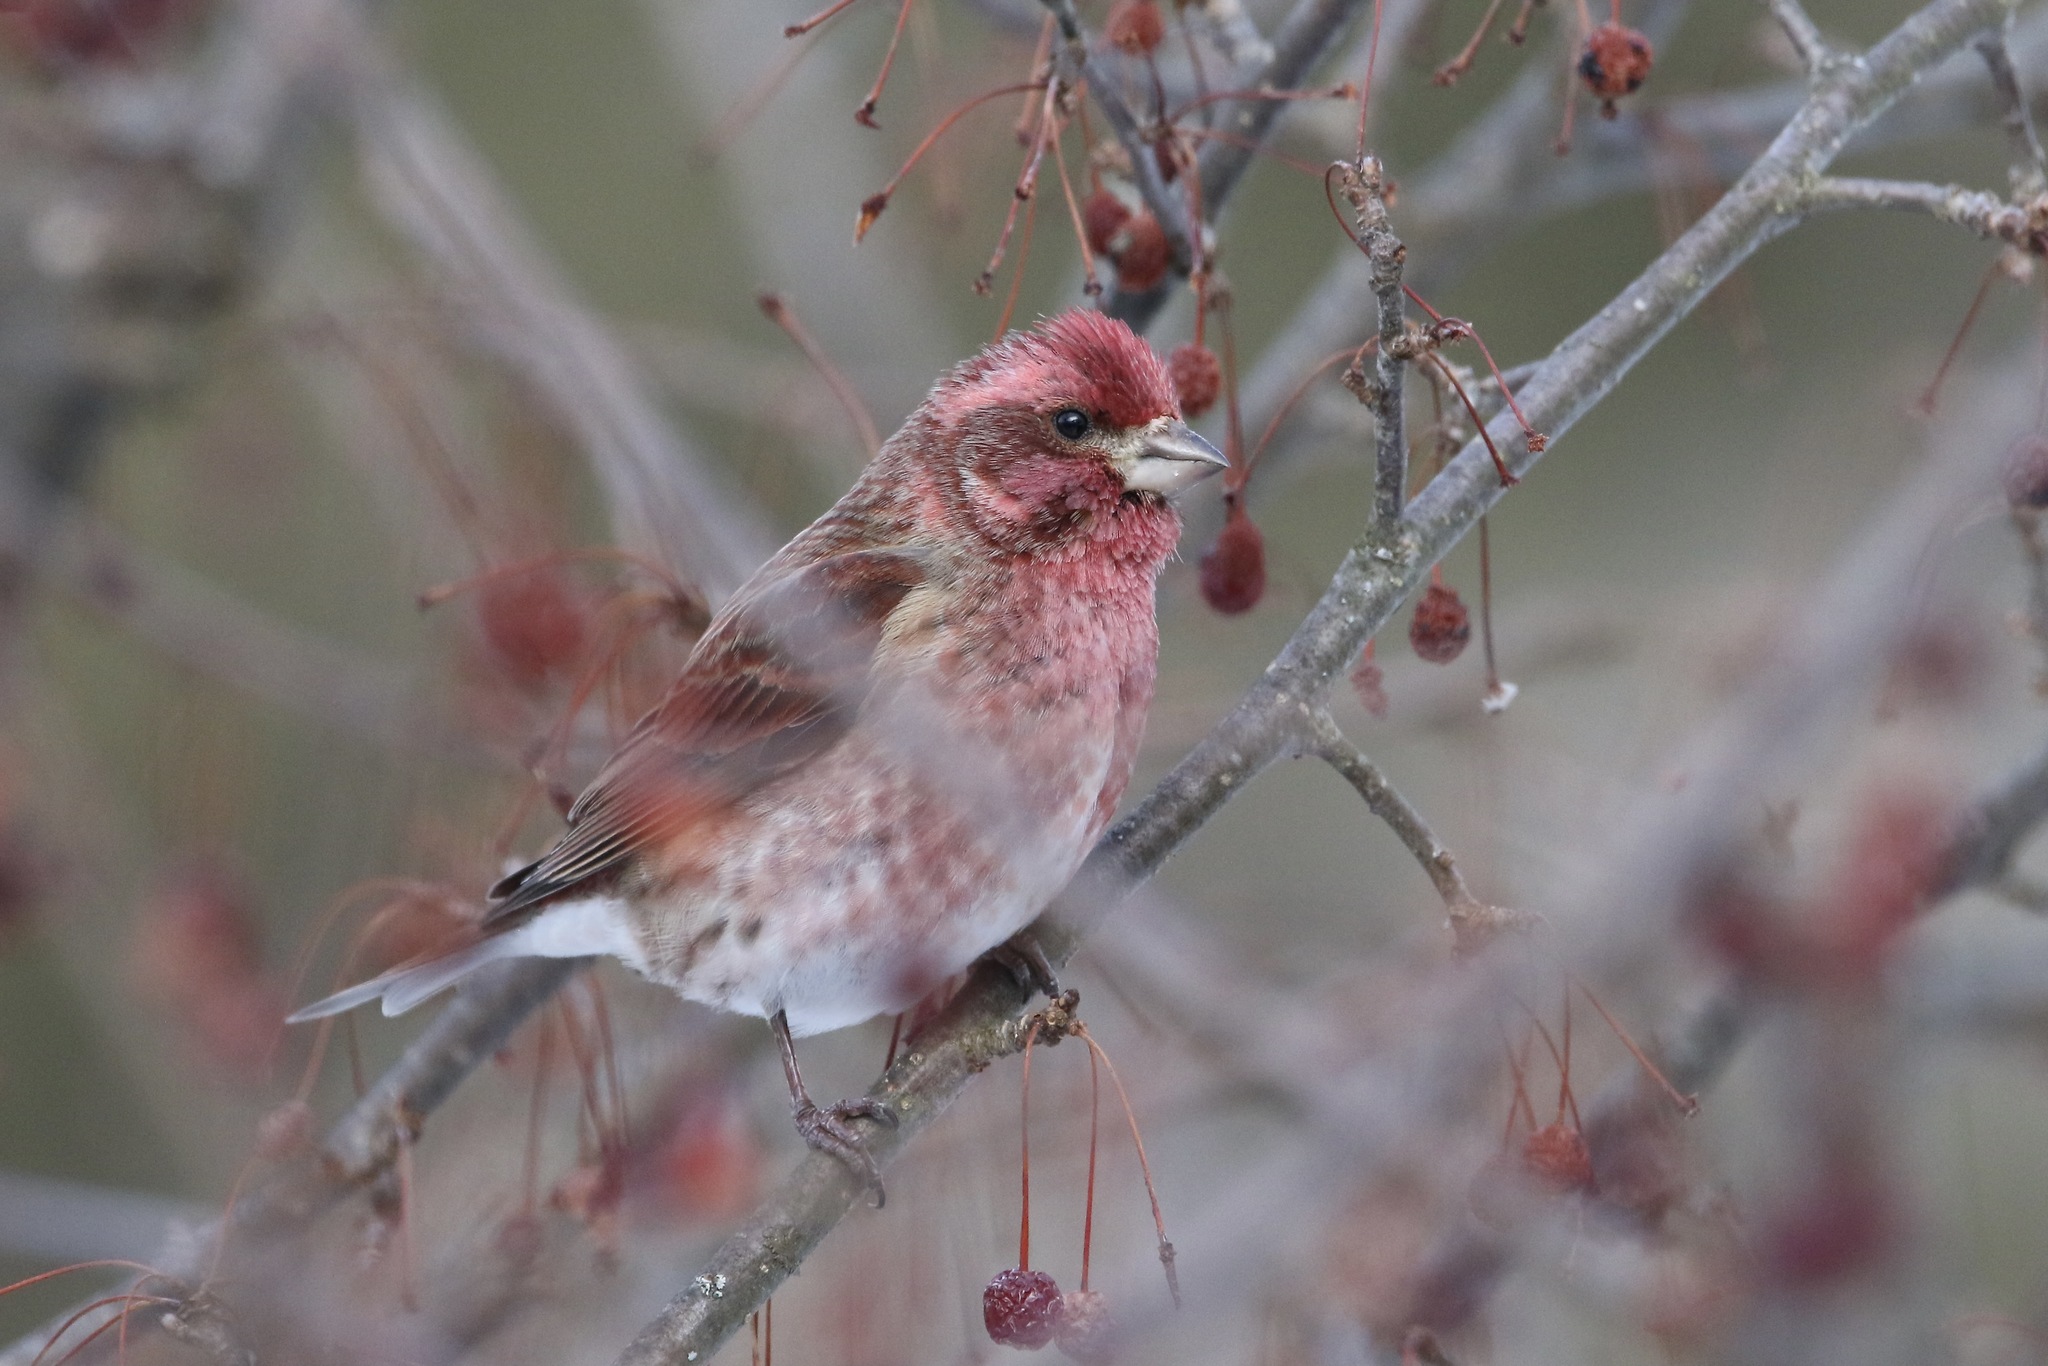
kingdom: Animalia
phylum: Chordata
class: Aves
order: Passeriformes
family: Fringillidae
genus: Haemorhous
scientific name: Haemorhous purpureus
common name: Purple finch
